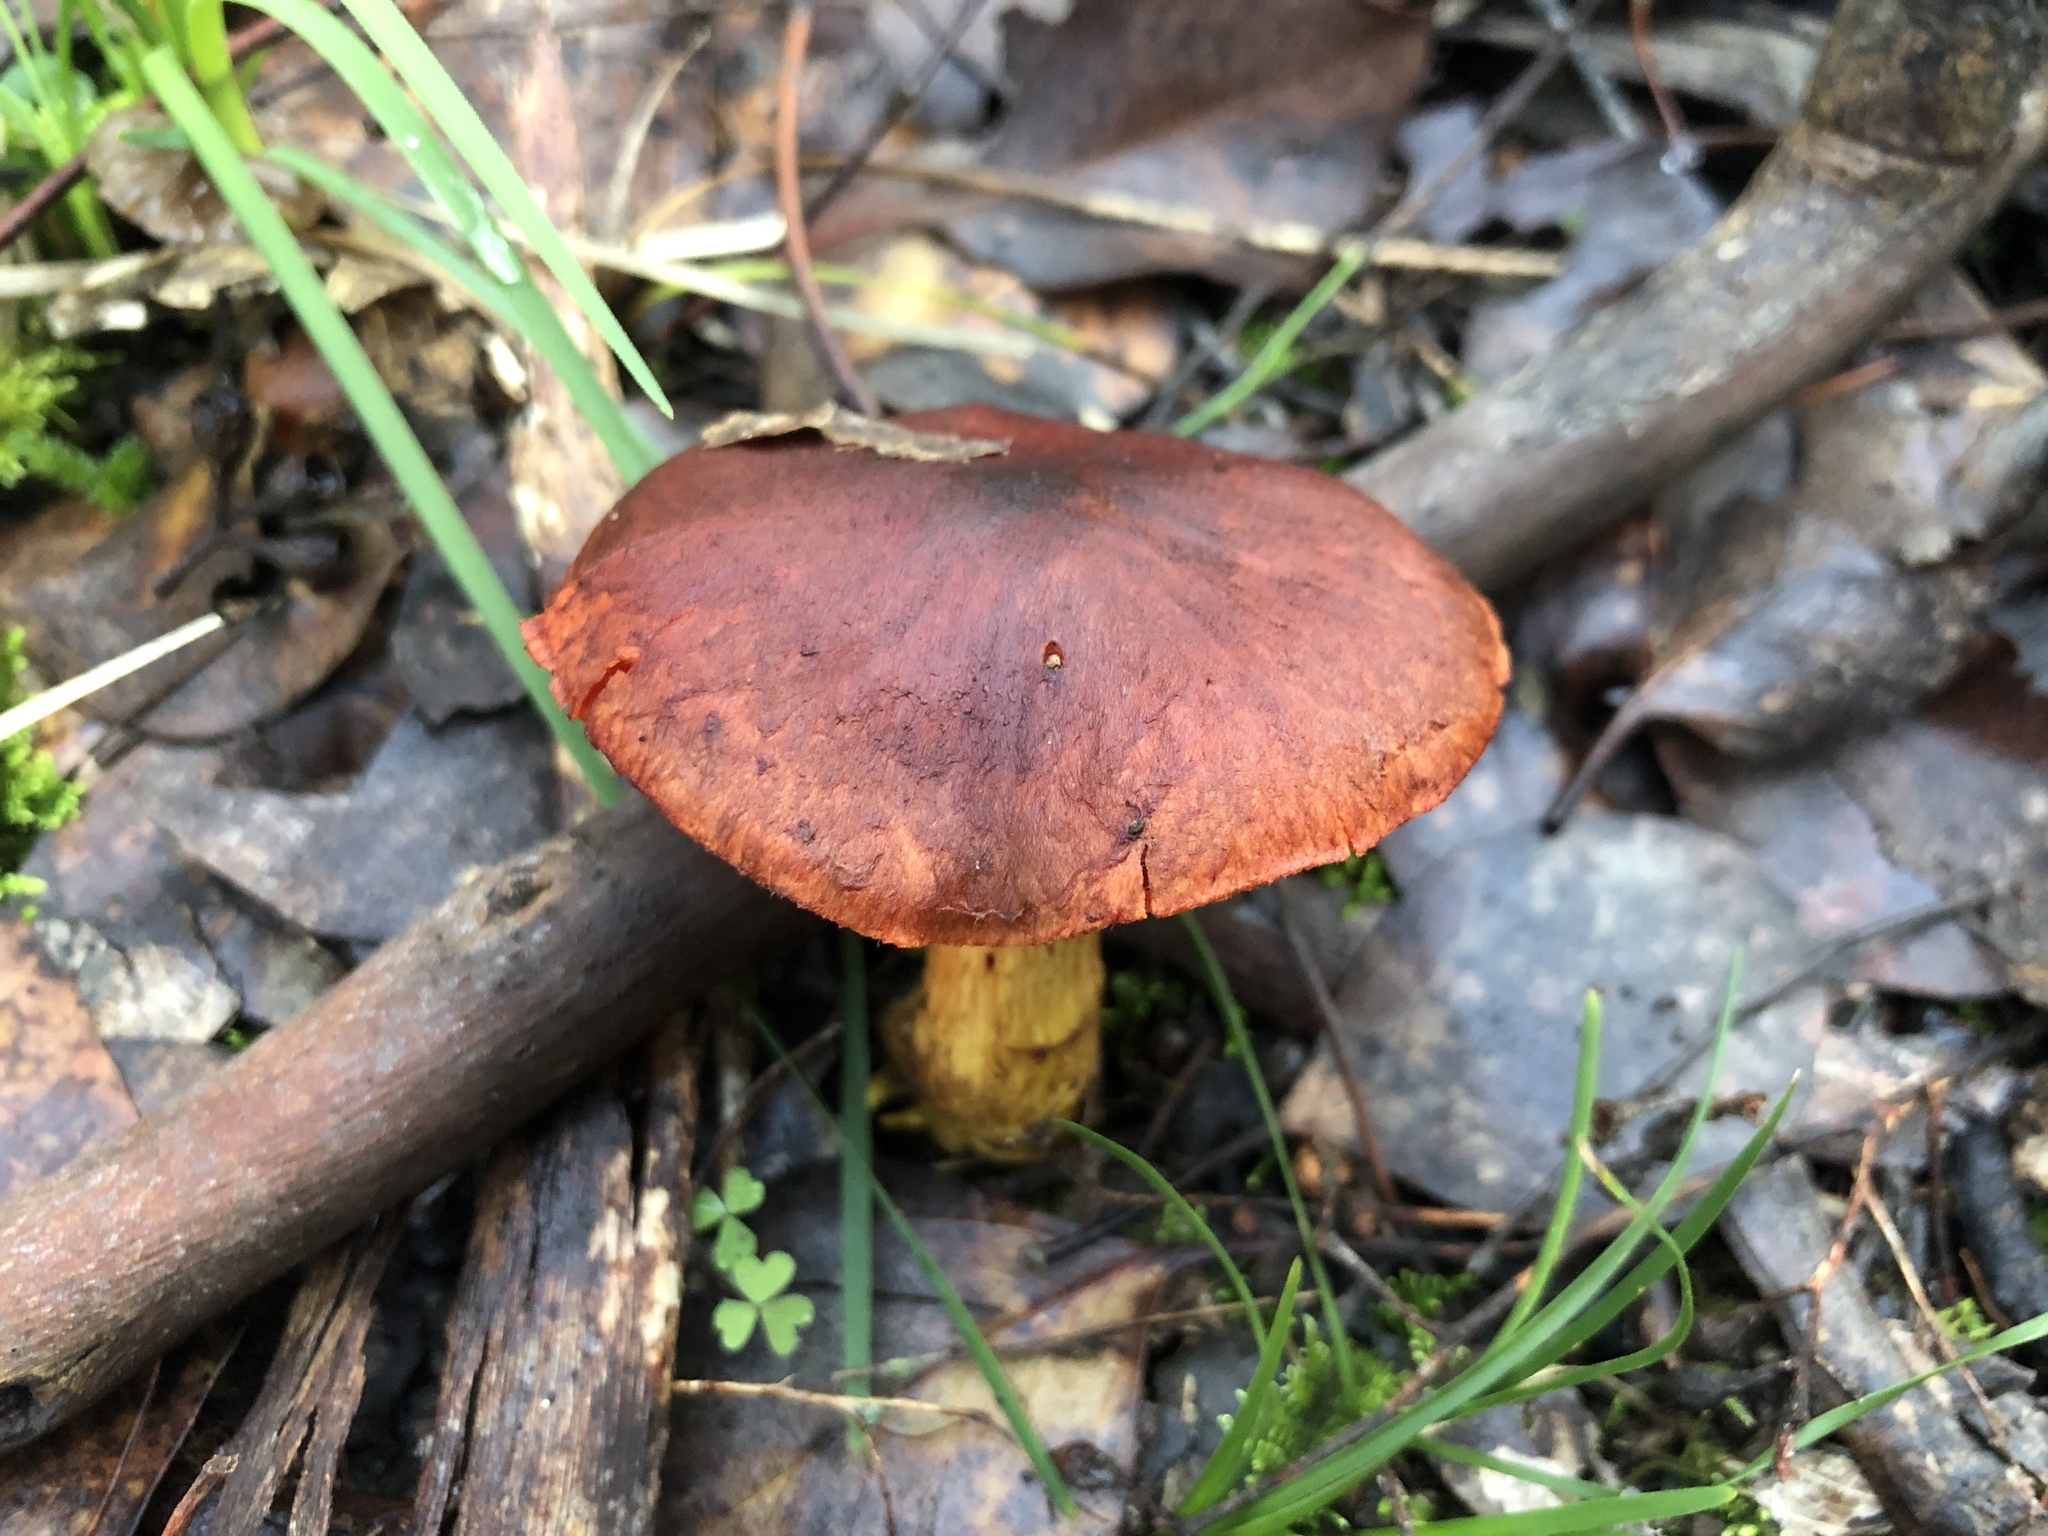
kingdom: Fungi
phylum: Basidiomycota
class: Agaricomycetes
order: Agaricales
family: Cortinariaceae
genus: Cortinarius
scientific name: Cortinarius persplendidus
